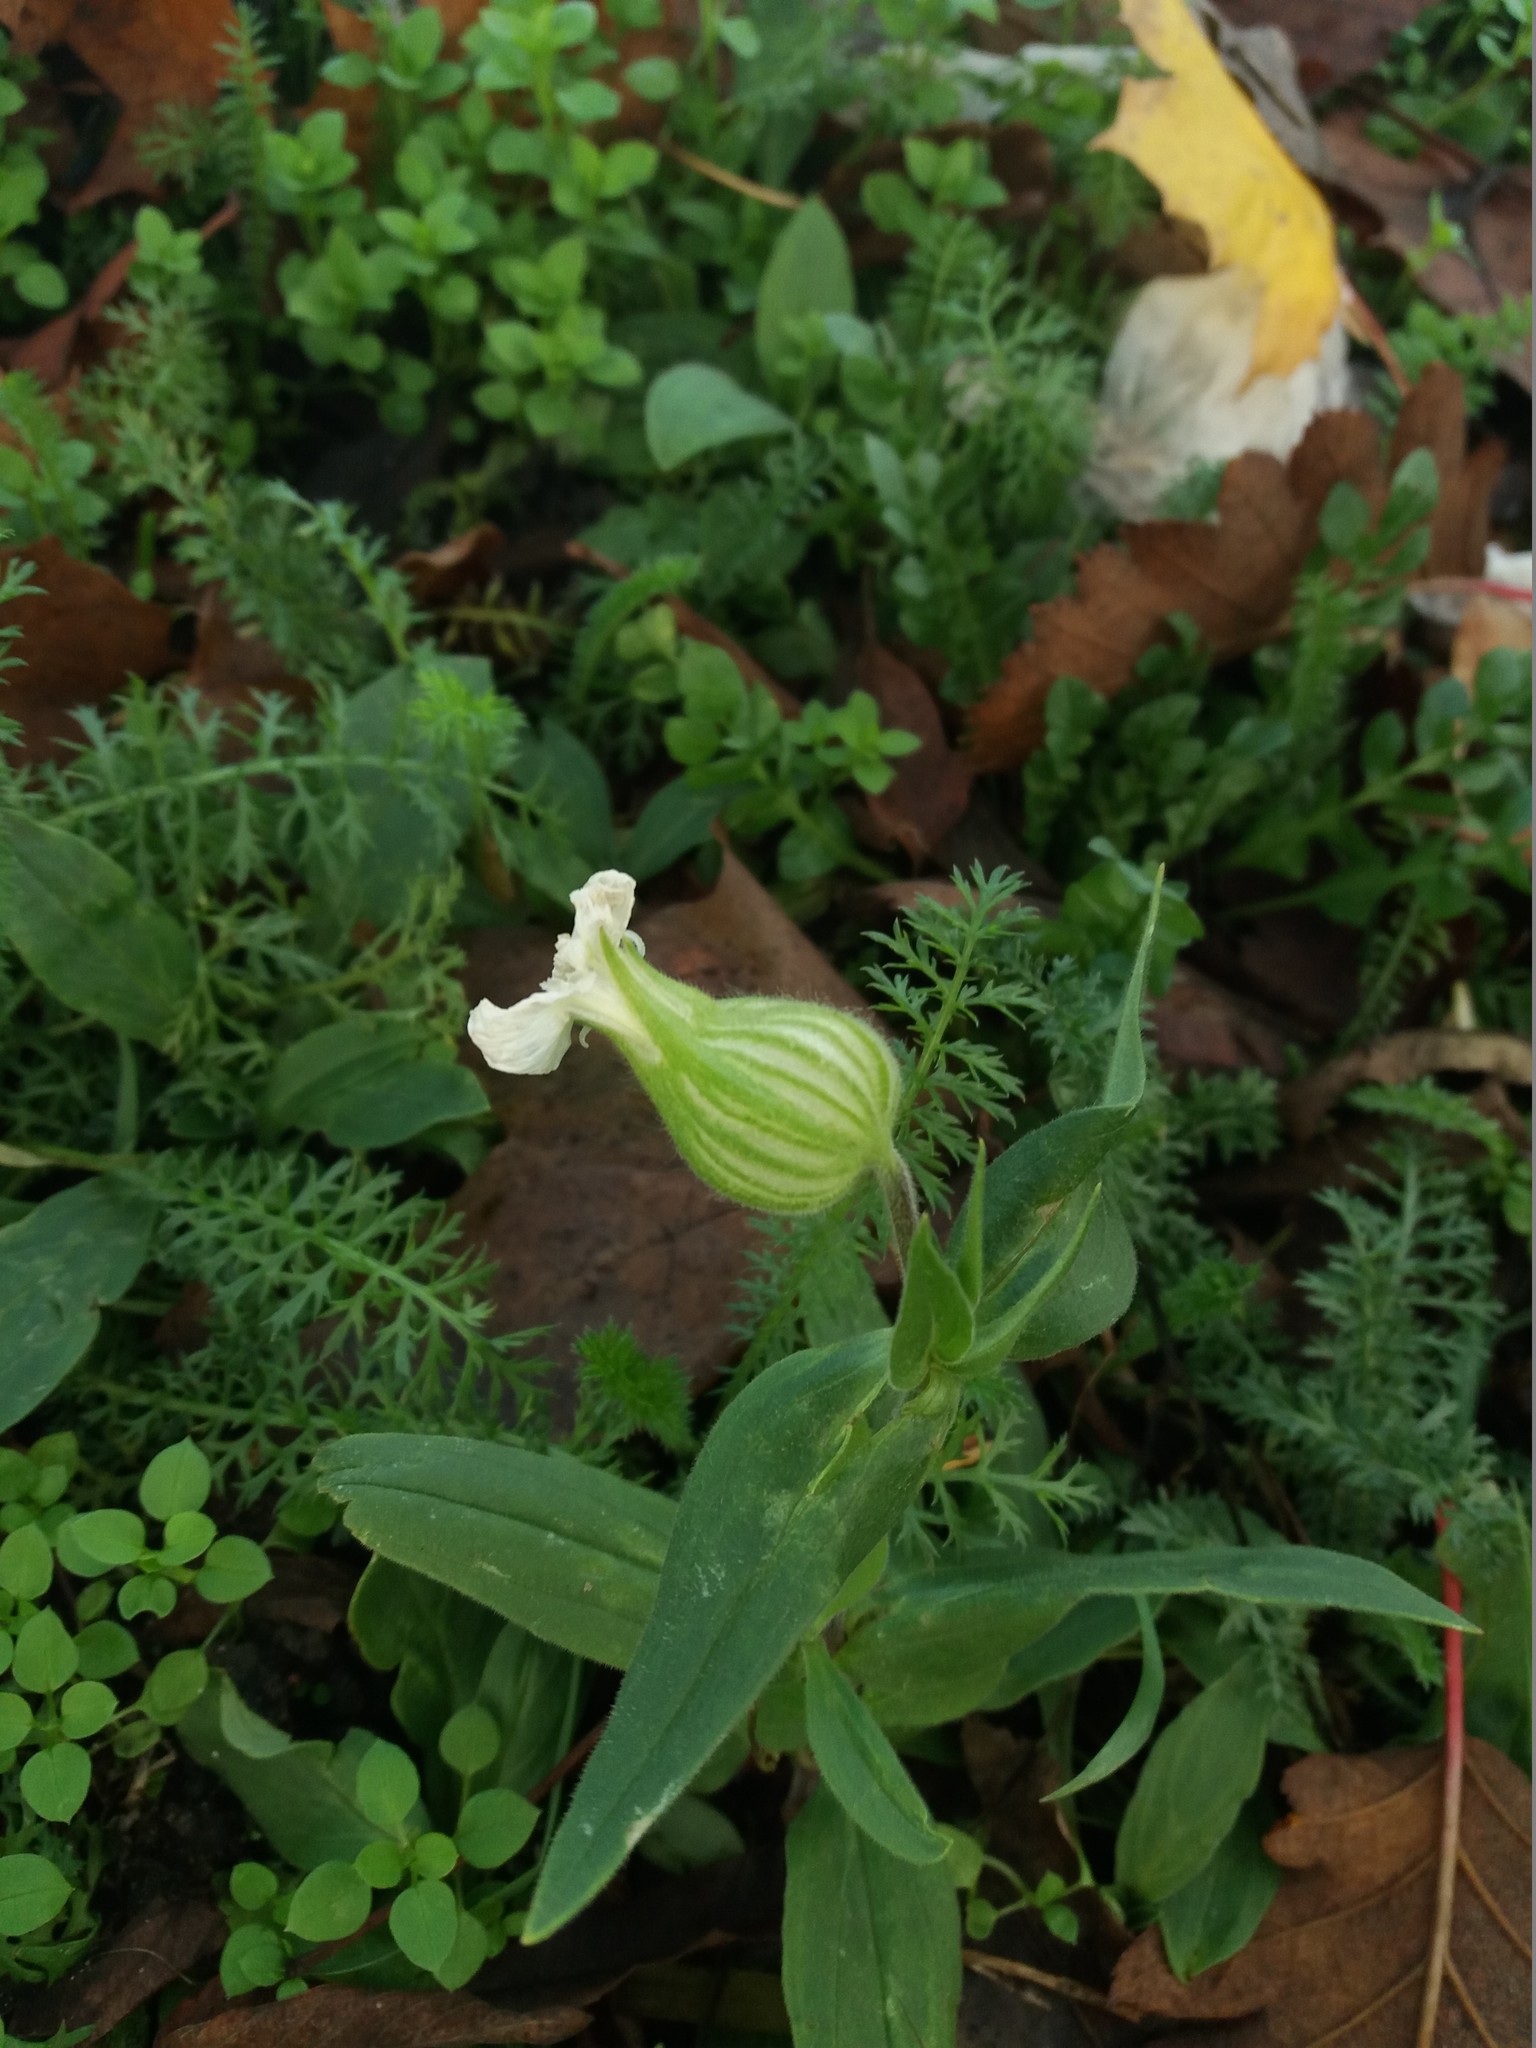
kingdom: Plantae
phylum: Tracheophyta
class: Magnoliopsida
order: Caryophyllales
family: Caryophyllaceae
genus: Silene
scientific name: Silene latifolia
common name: White campion
